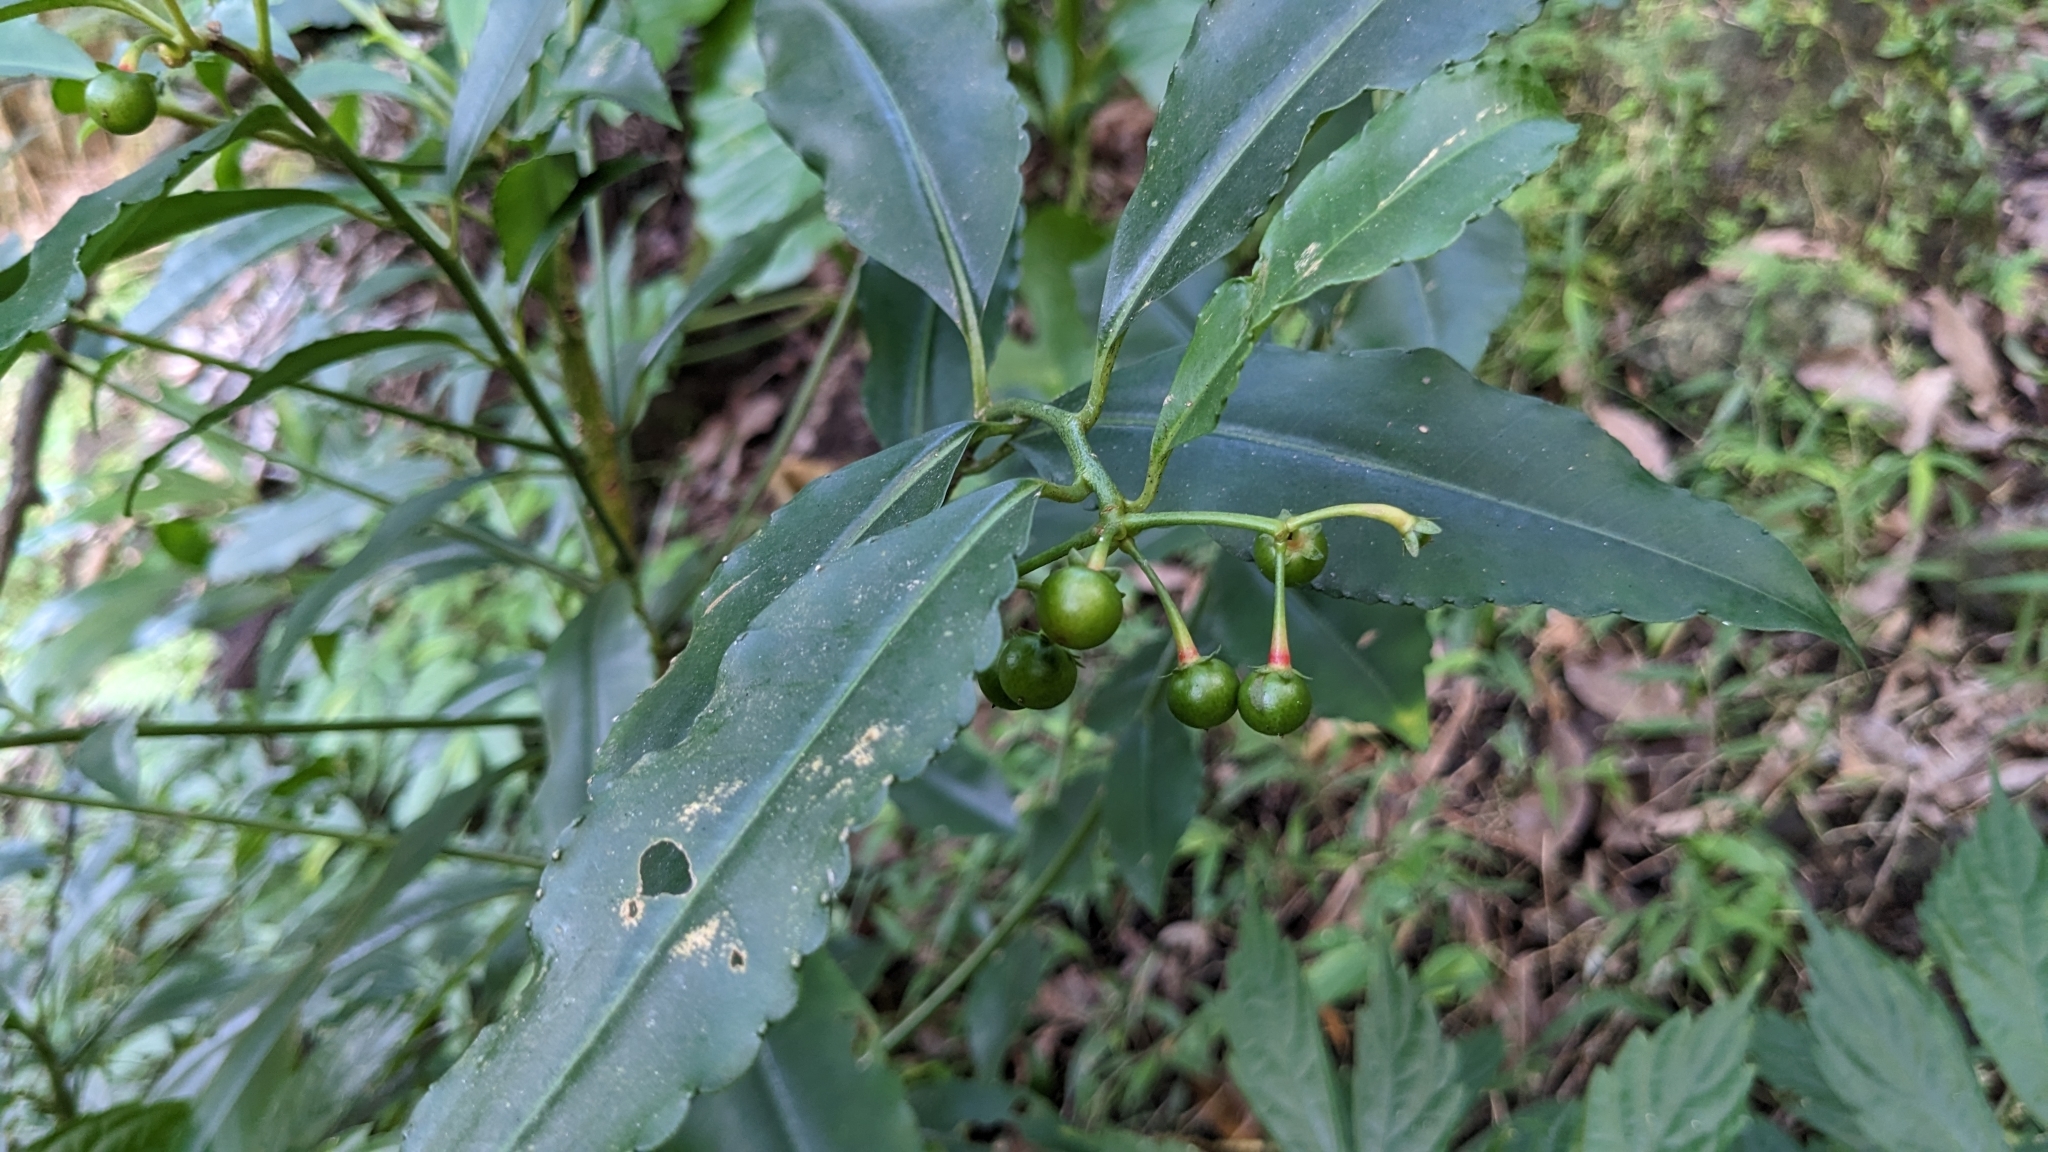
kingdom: Plantae
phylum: Tracheophyta
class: Magnoliopsida
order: Ericales
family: Primulaceae
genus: Ardisia
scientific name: Ardisia polysticta
